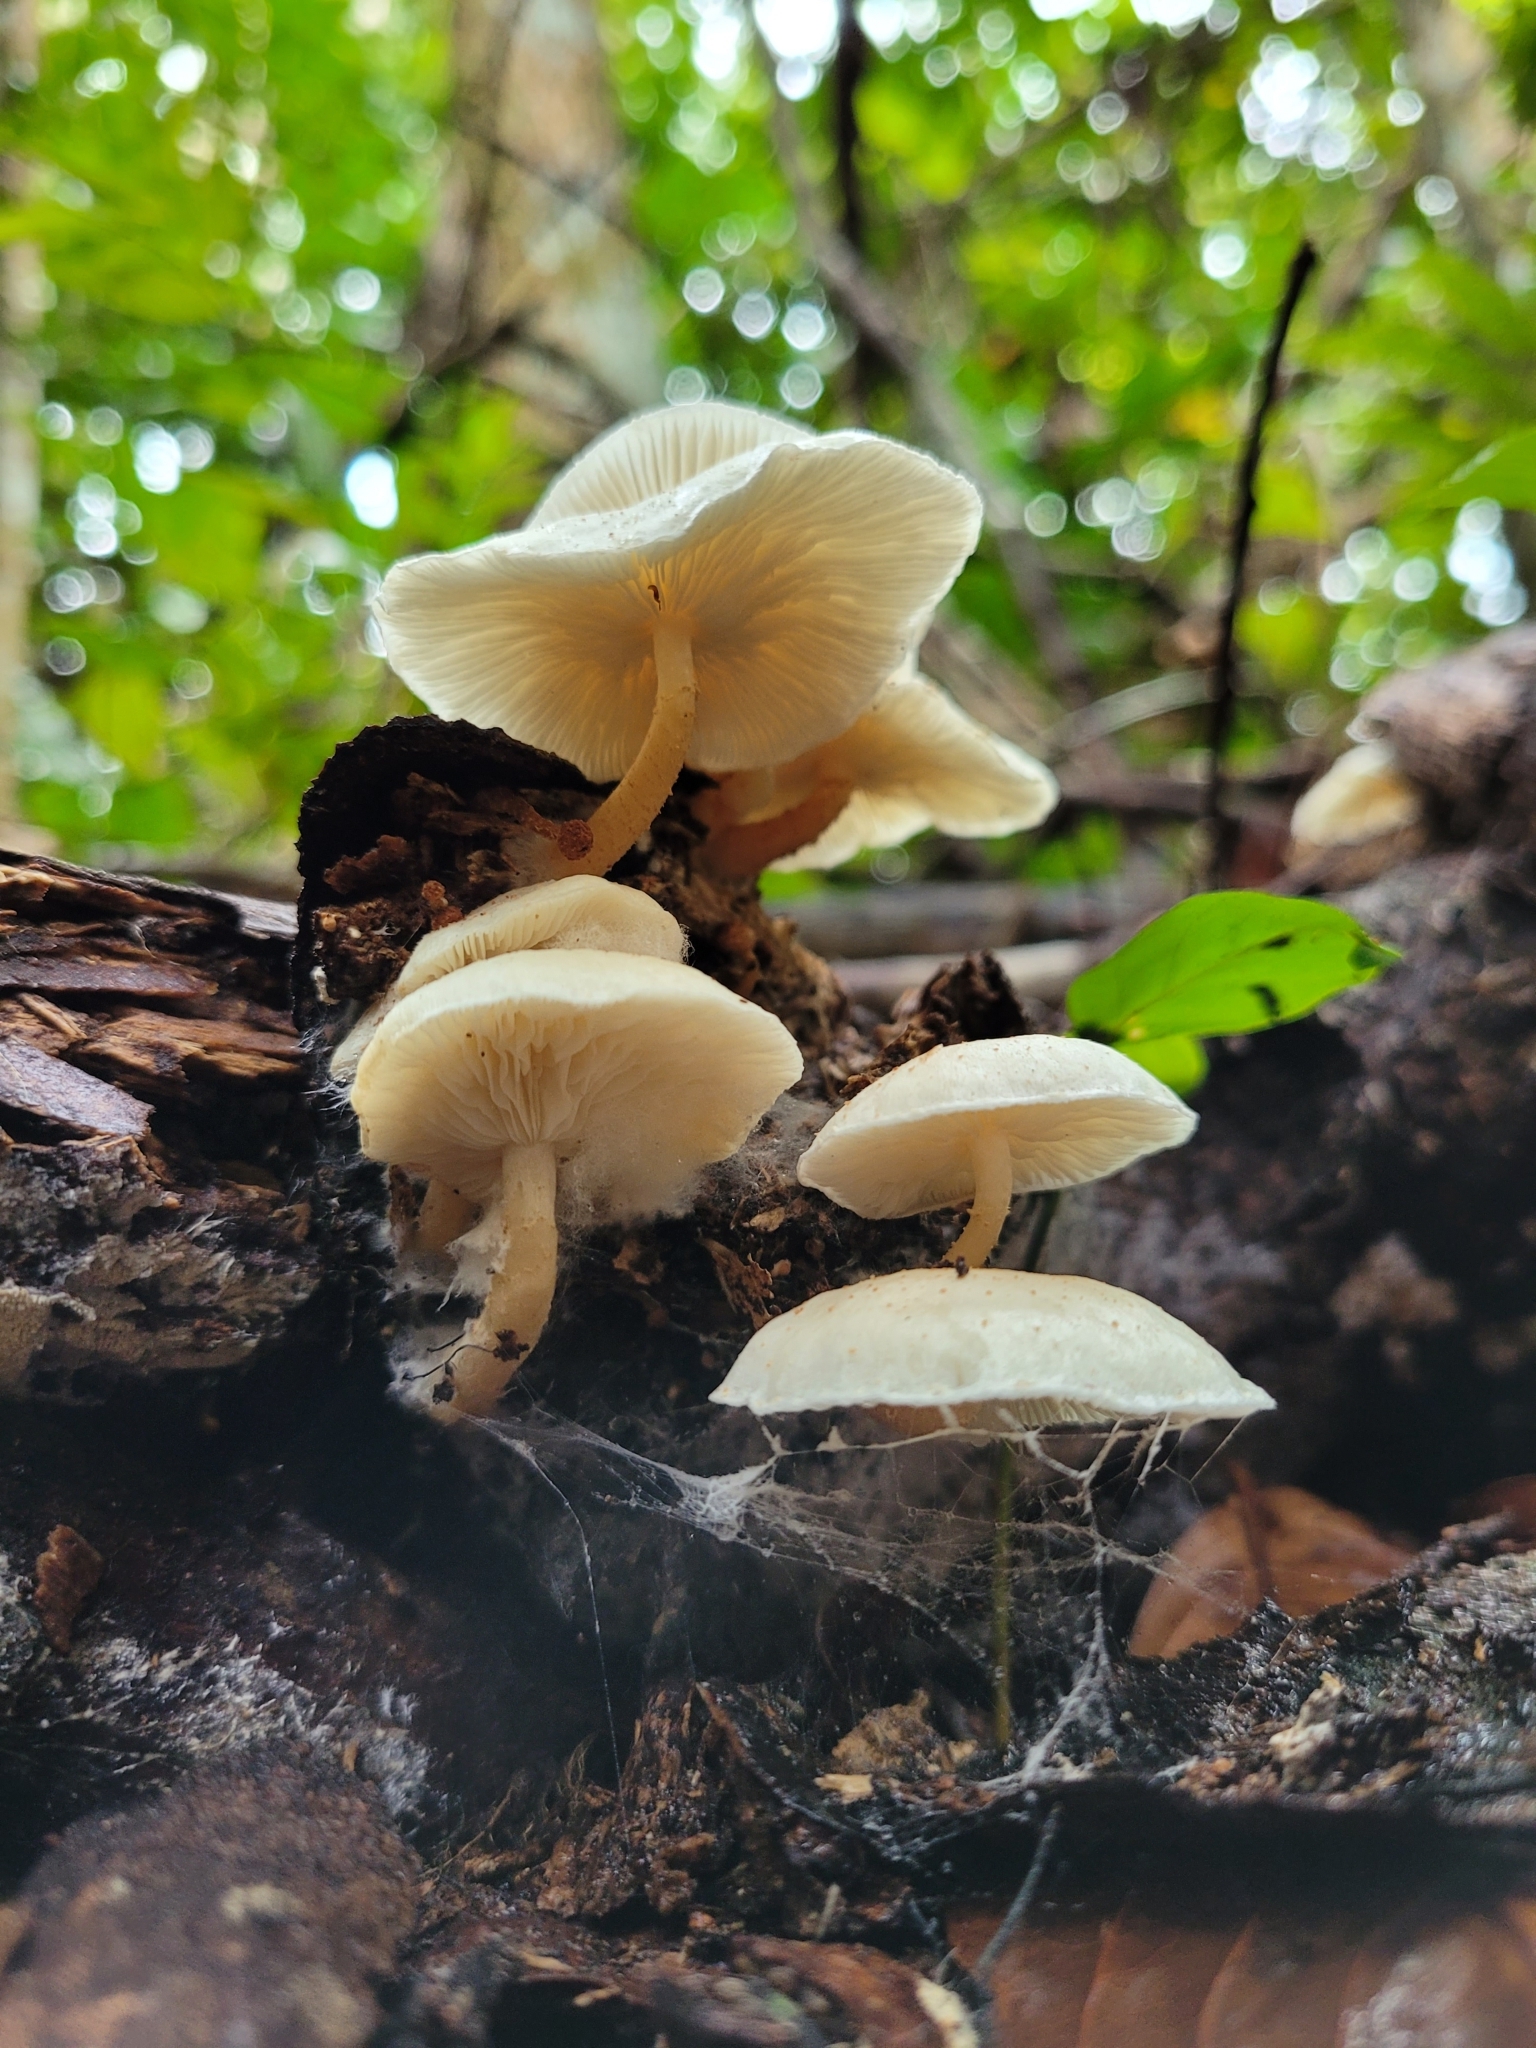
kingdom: Fungi
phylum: Basidiomycota
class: Agaricomycetes
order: Agaricales
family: Agaricaceae
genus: Ripartitella
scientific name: Ripartitella brasiliensis
